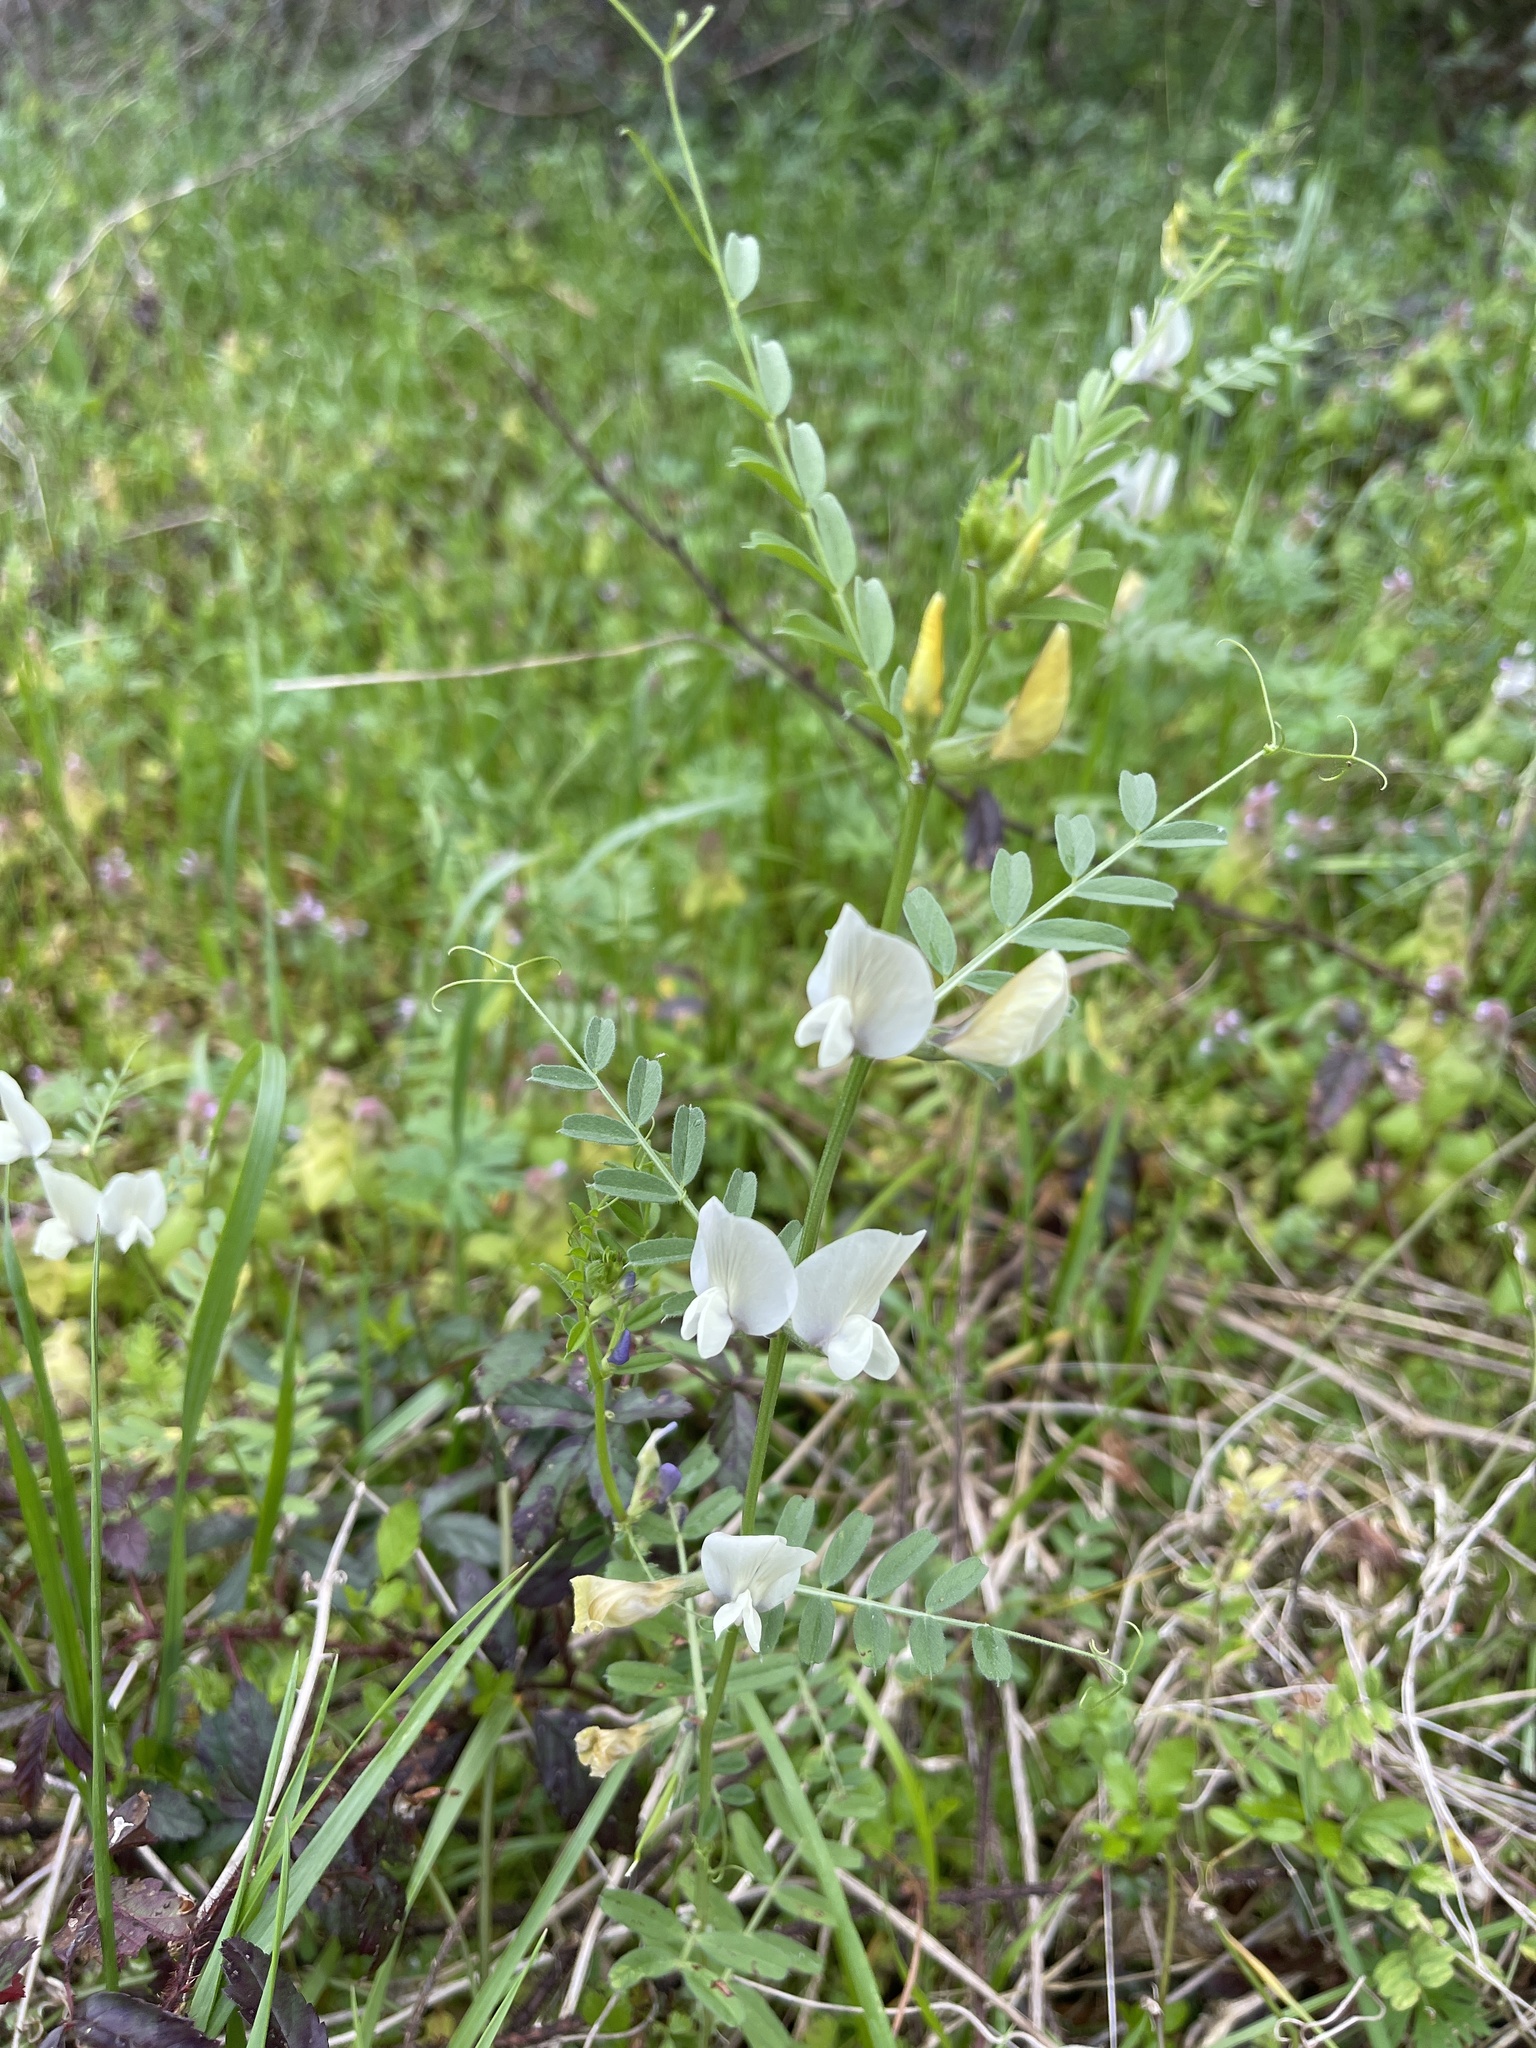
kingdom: Plantae
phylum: Tracheophyta
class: Magnoliopsida
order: Fabales
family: Fabaceae
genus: Vicia
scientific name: Vicia grandiflora
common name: Large yellow vetch
